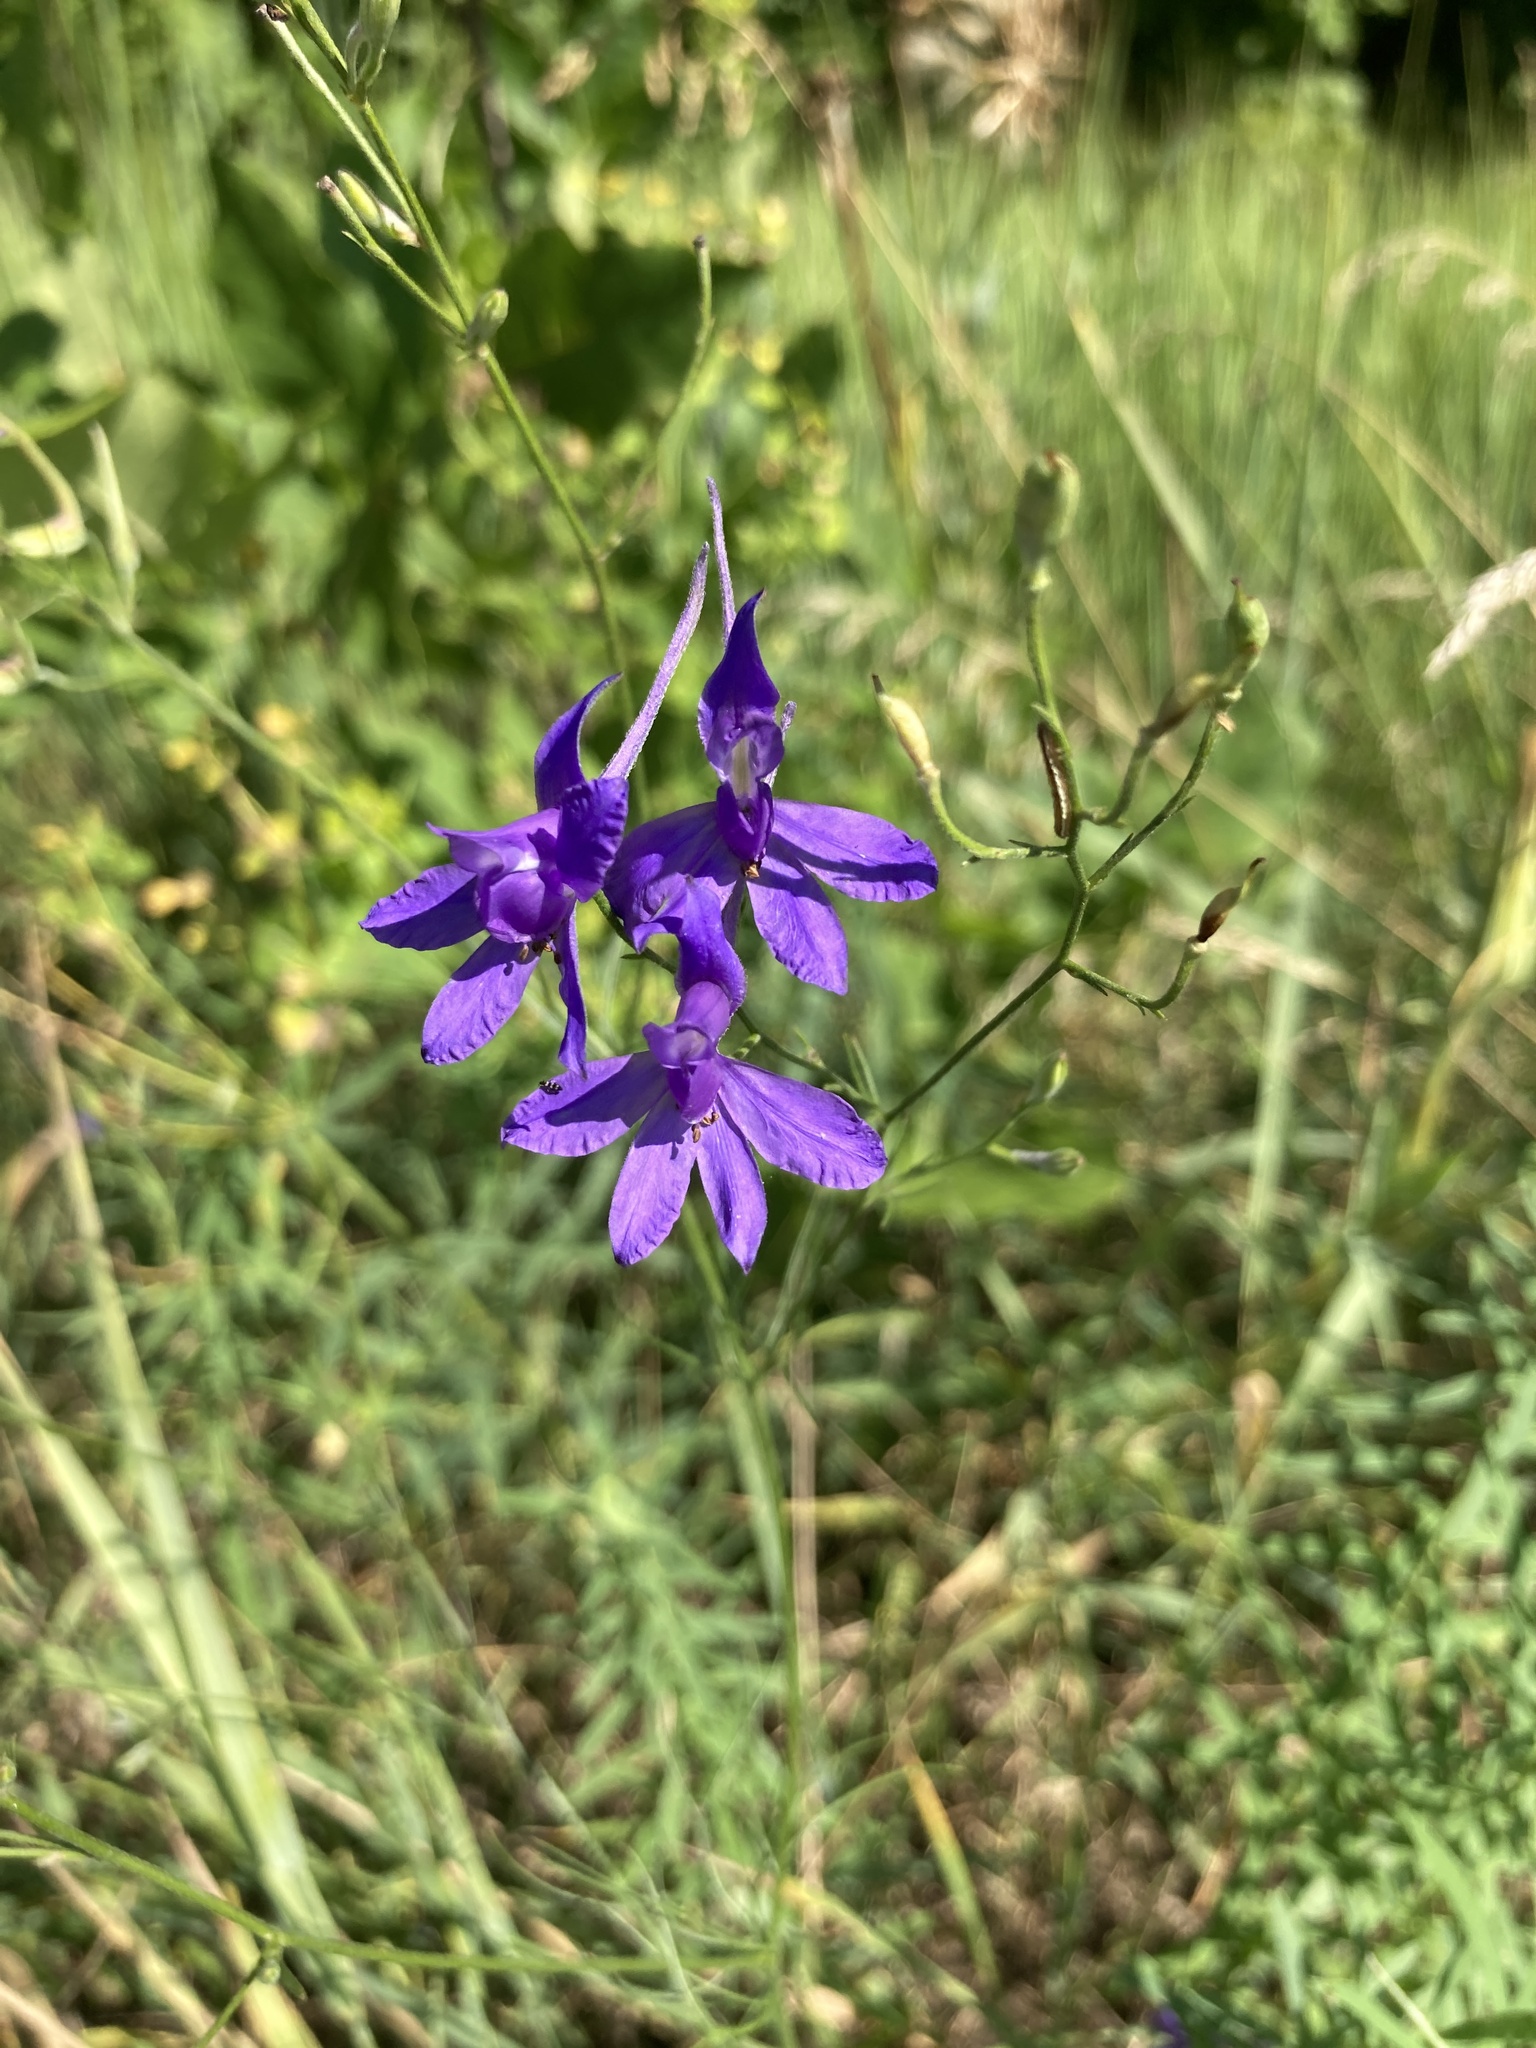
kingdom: Plantae
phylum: Tracheophyta
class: Magnoliopsida
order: Ranunculales
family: Ranunculaceae
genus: Delphinium
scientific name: Delphinium consolida
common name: Branching larkspur
